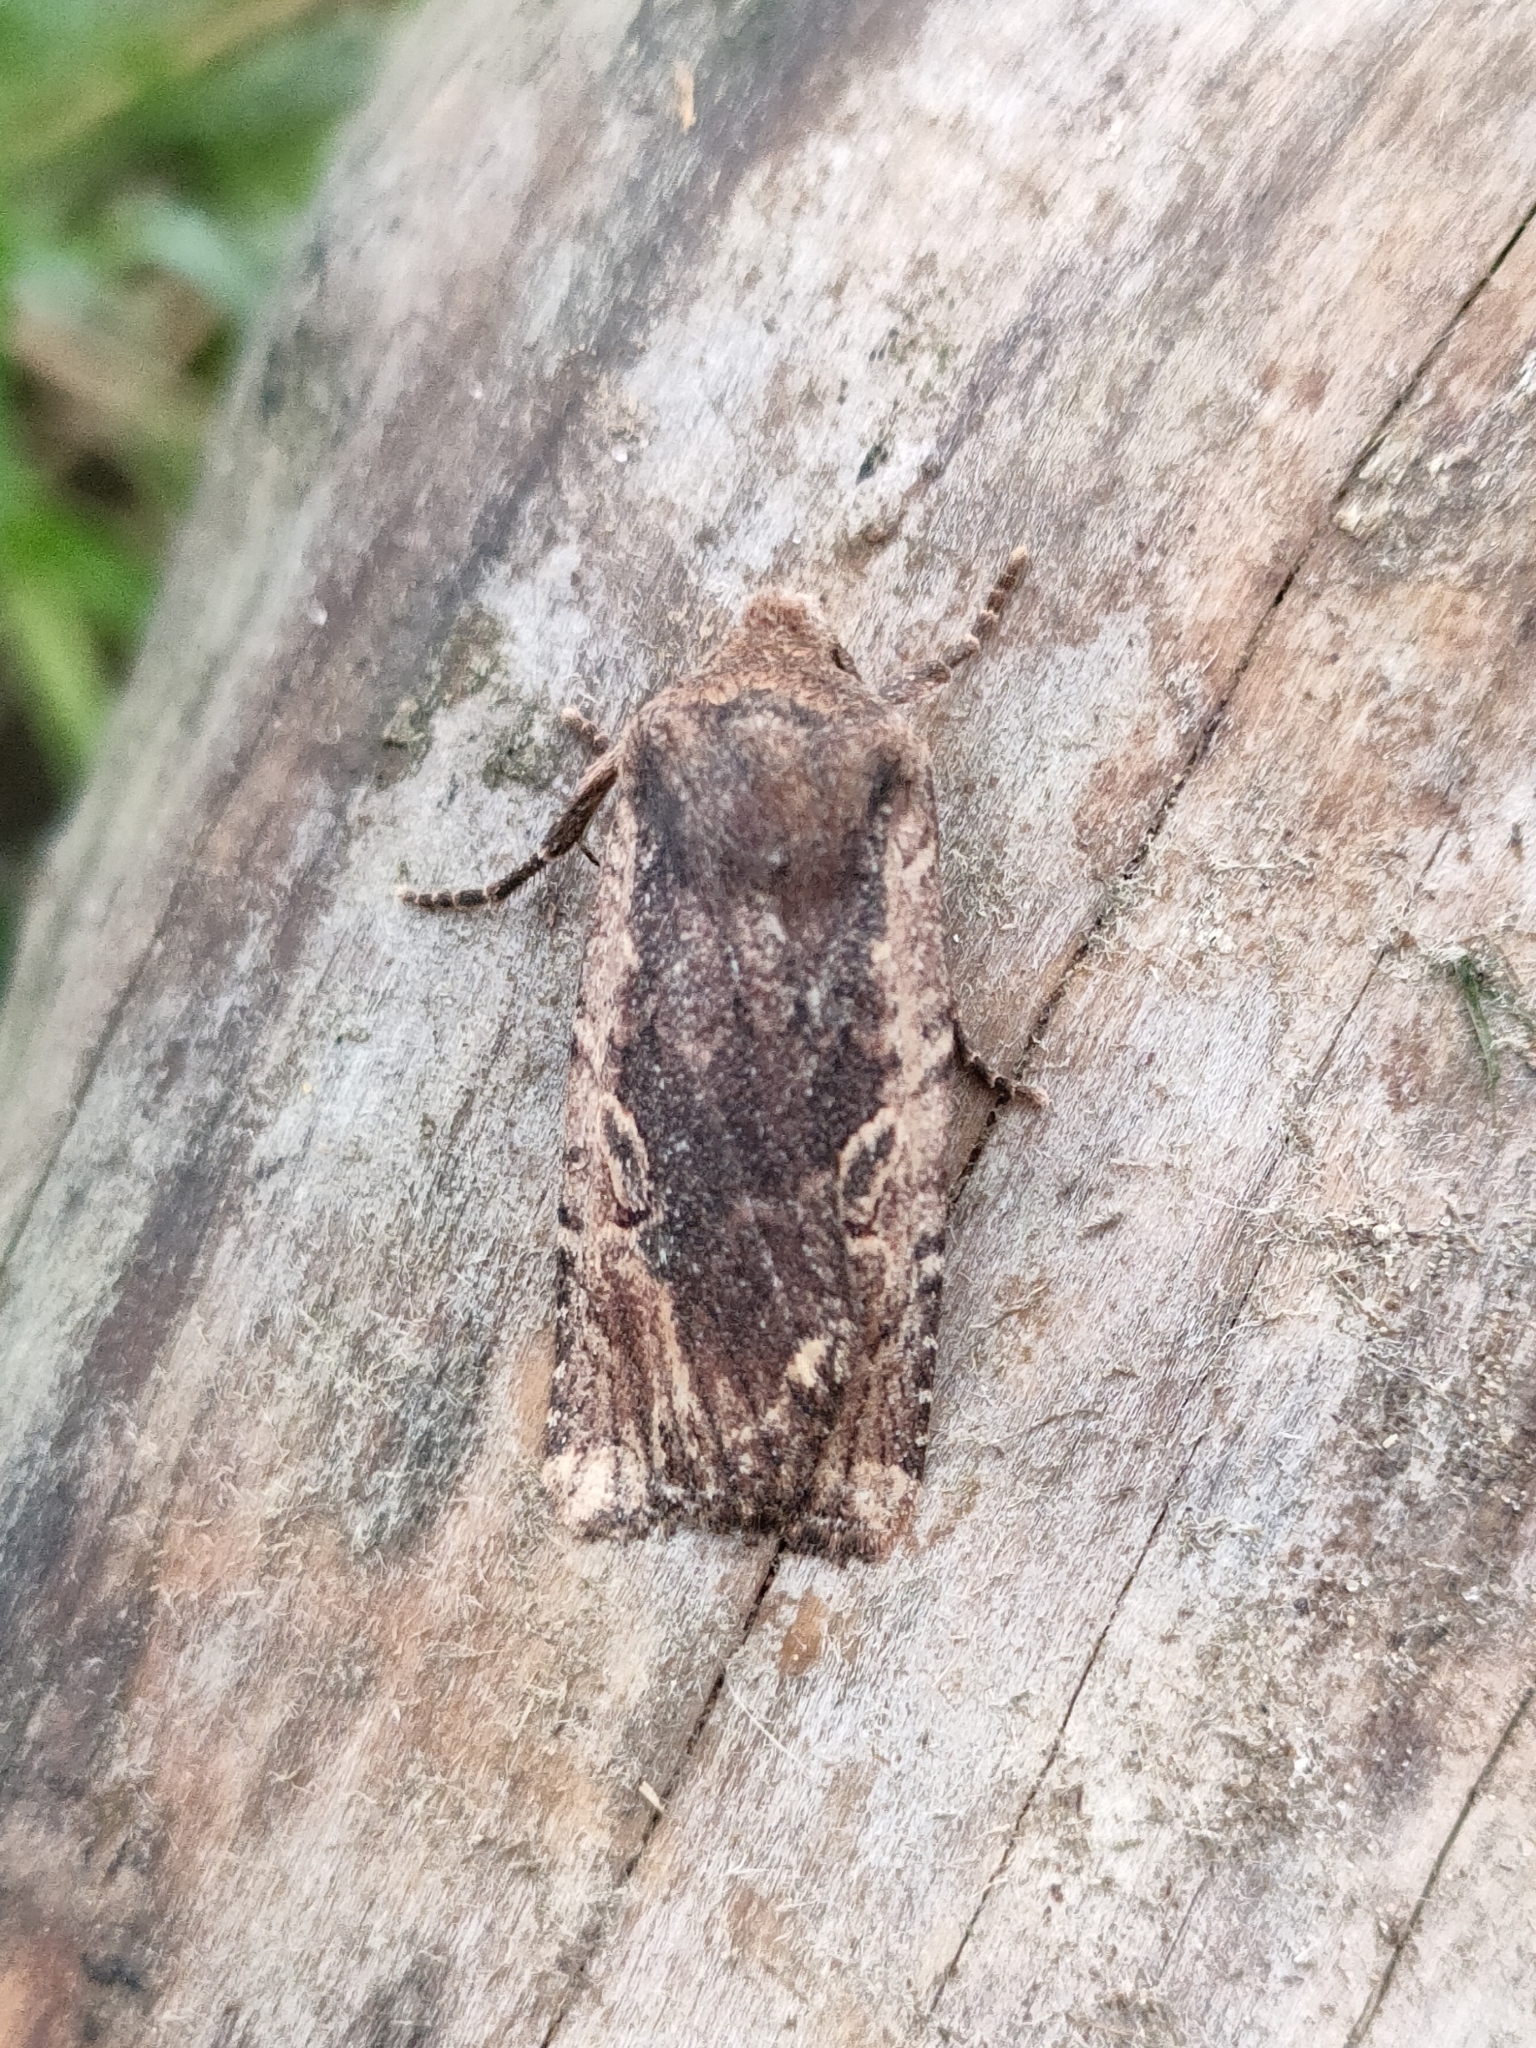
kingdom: Animalia
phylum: Arthropoda
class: Insecta
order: Lepidoptera
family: Noctuidae
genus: Conistra
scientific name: Conistra torrida
